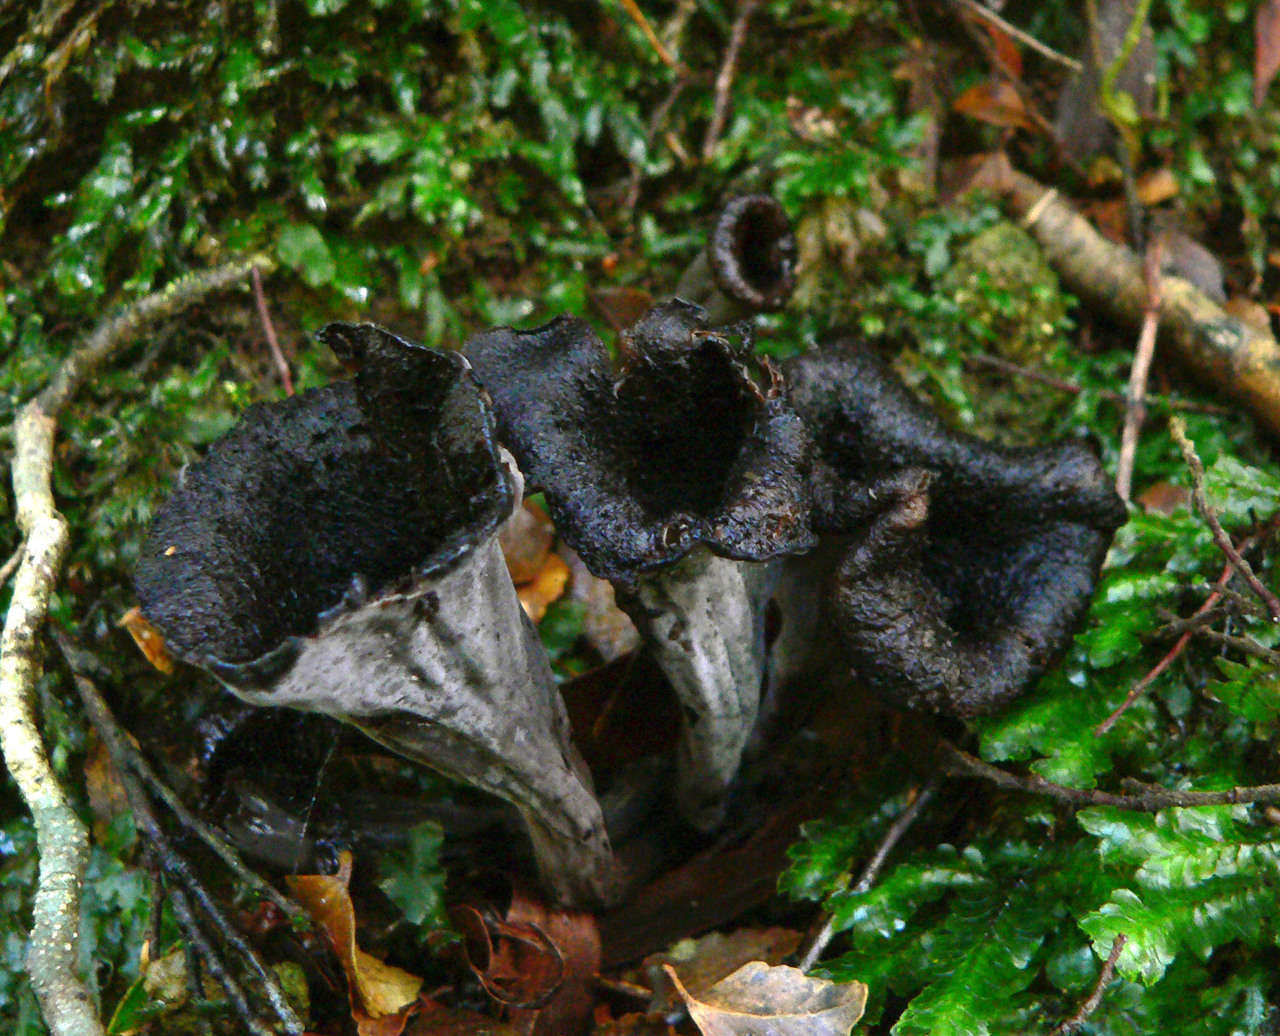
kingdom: Fungi
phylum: Basidiomycota
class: Agaricomycetes
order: Cantharellales
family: Hydnaceae
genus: Craterellus
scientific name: Craterellus cornucopioides
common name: Horn of plenty
